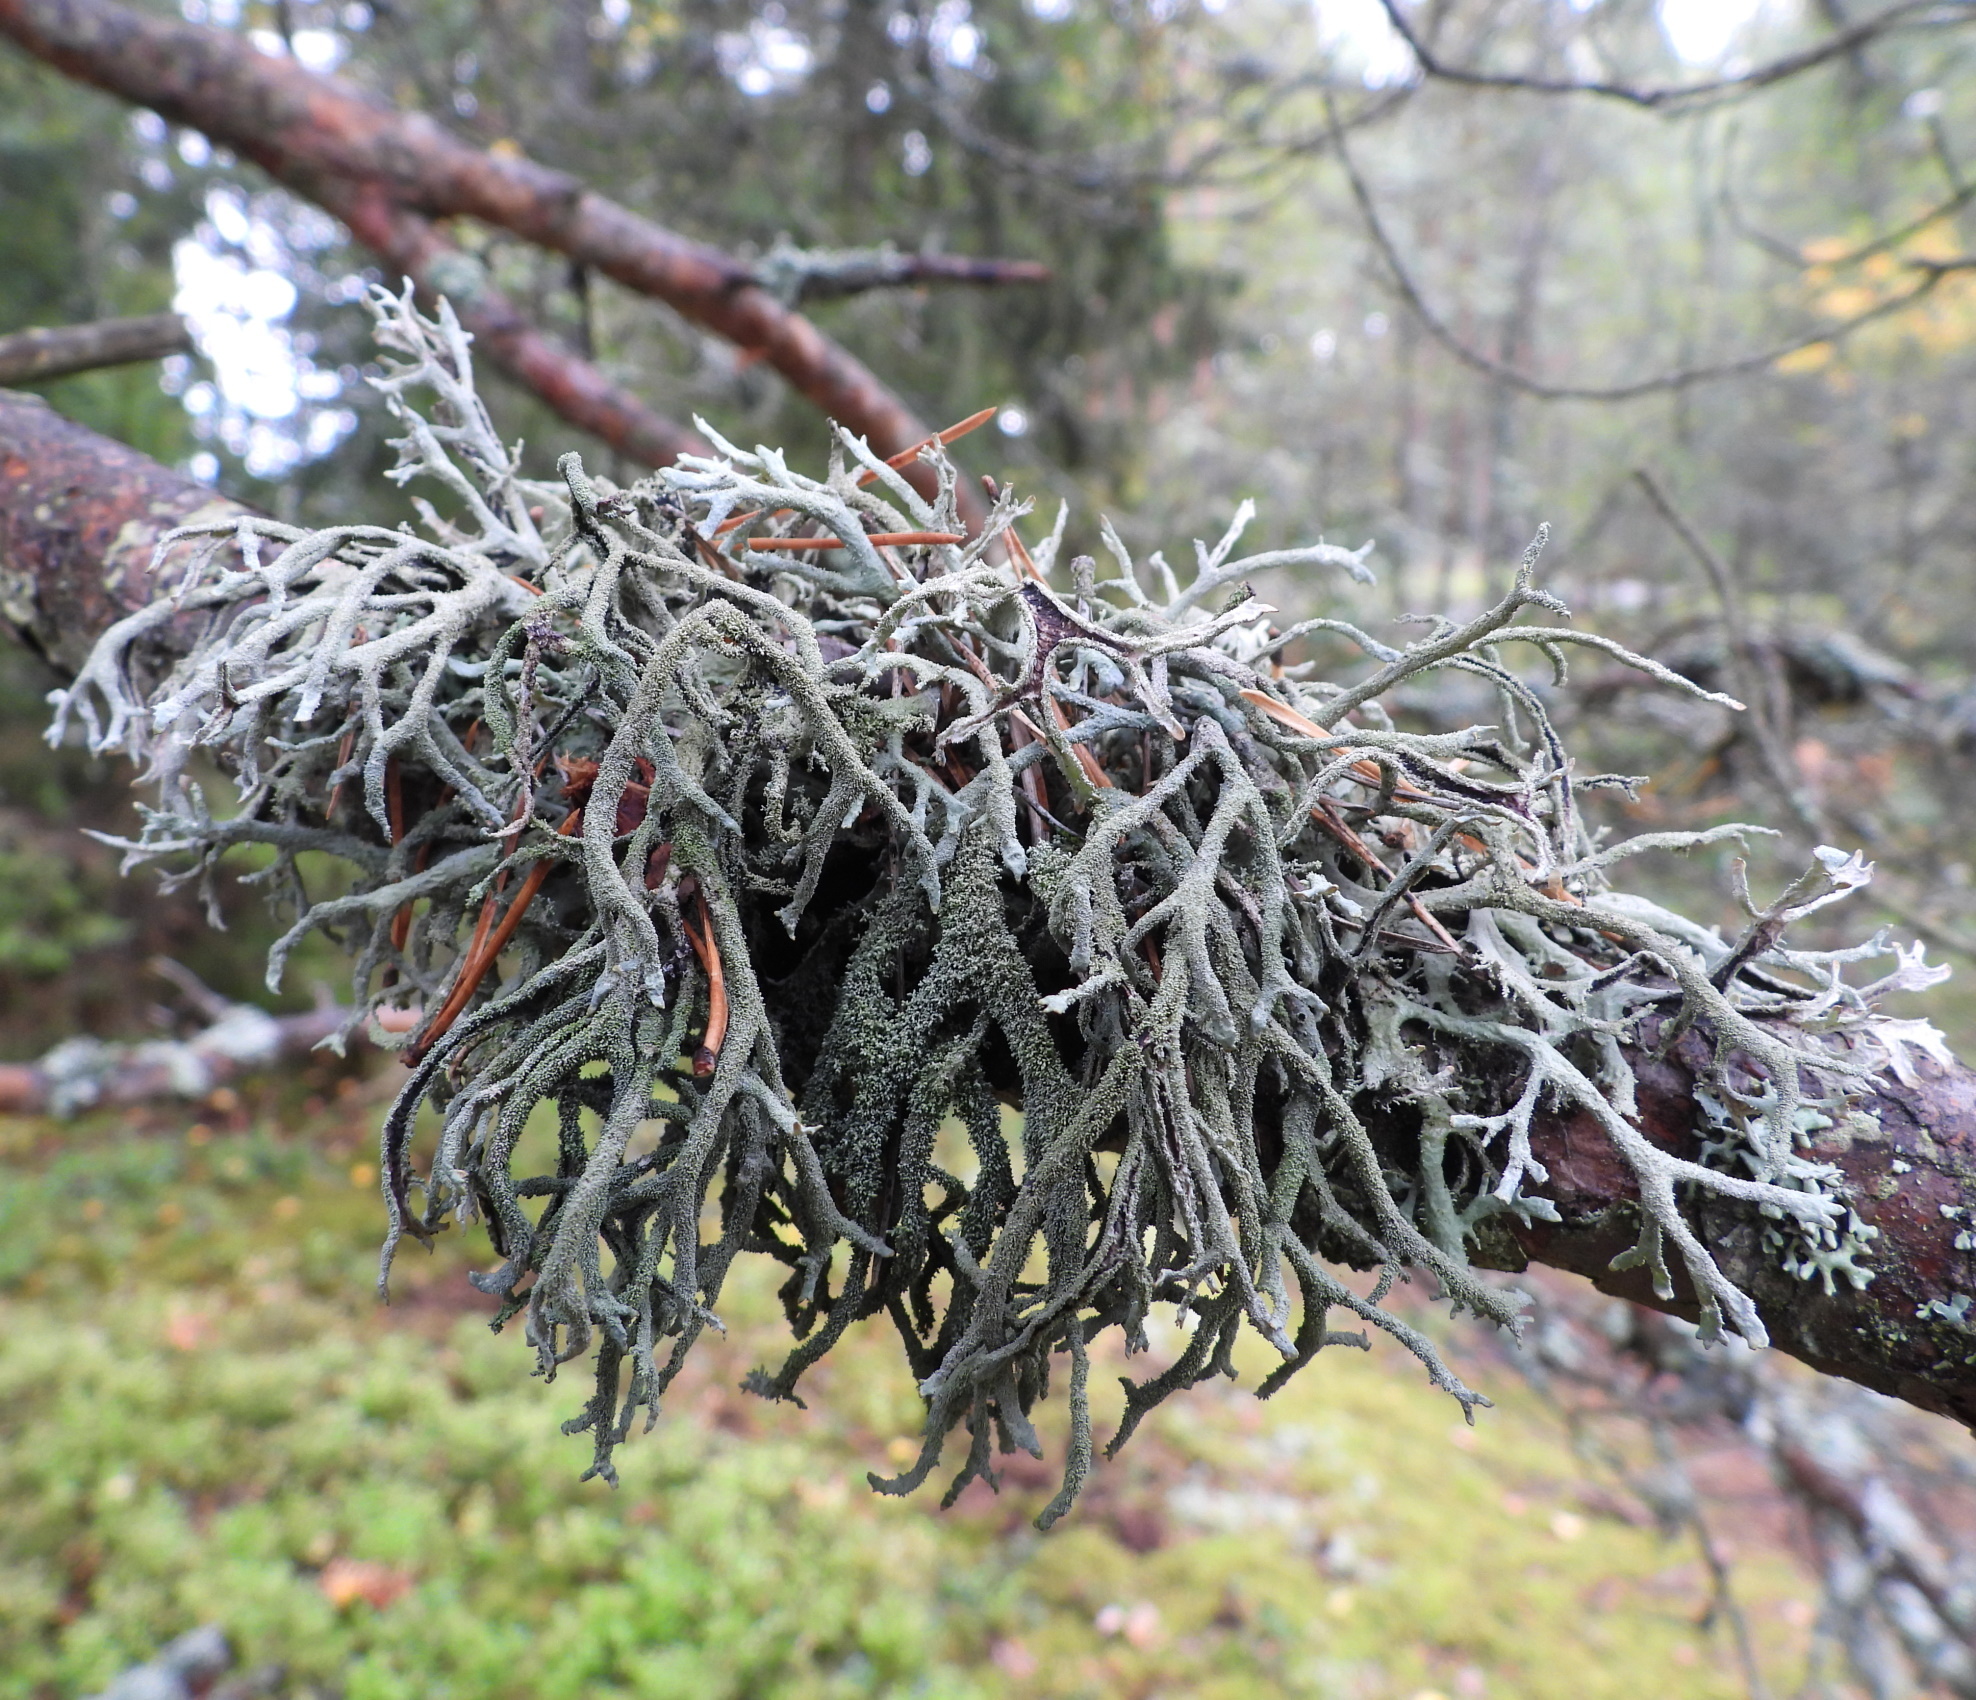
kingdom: Fungi
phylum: Ascomycota
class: Lecanoromycetes
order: Lecanorales
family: Parmeliaceae
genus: Pseudevernia
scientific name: Pseudevernia furfuracea
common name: Tree moss
